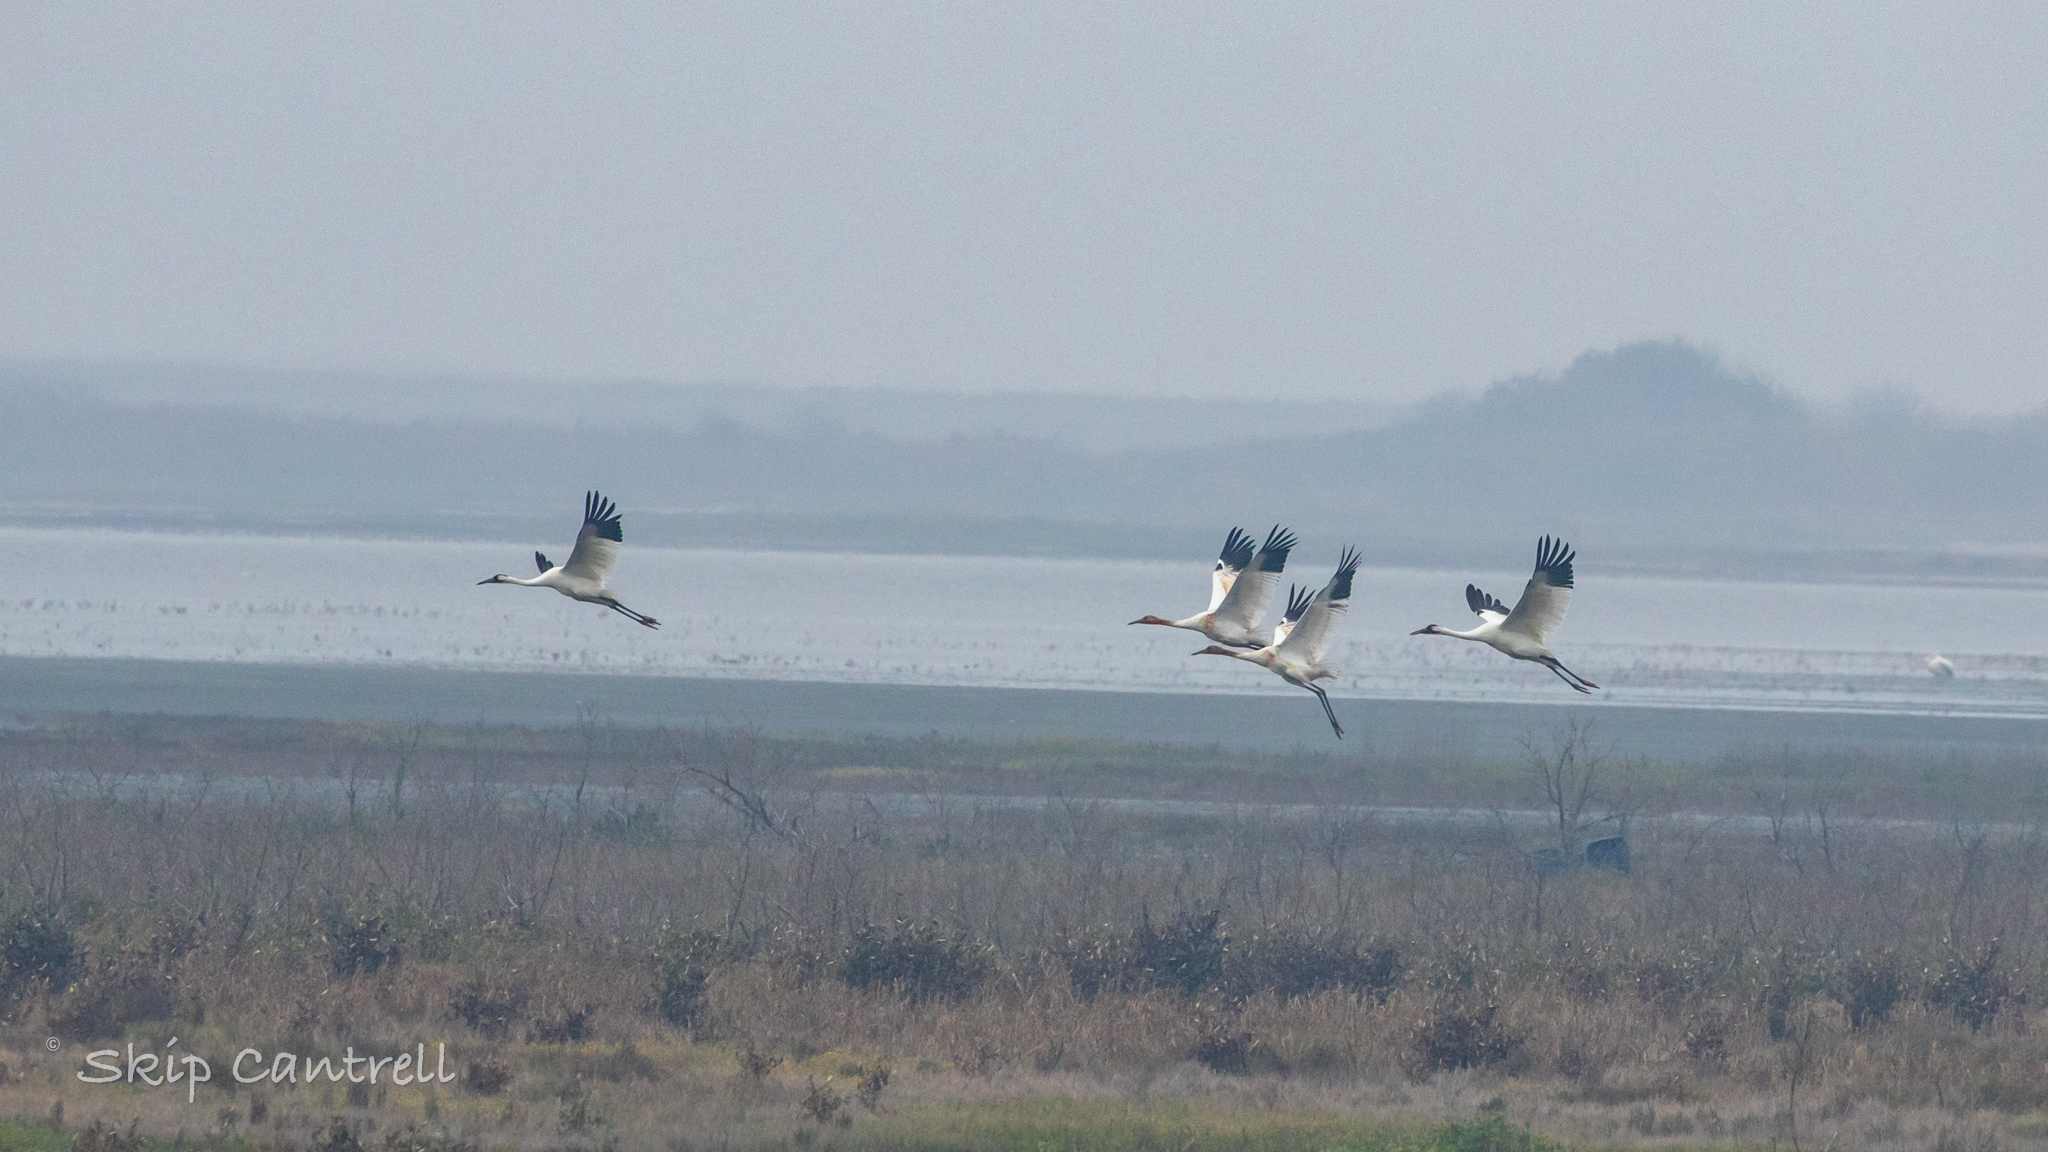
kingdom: Animalia
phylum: Chordata
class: Aves
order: Gruiformes
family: Gruidae
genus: Grus
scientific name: Grus americana
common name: Whooping crane
